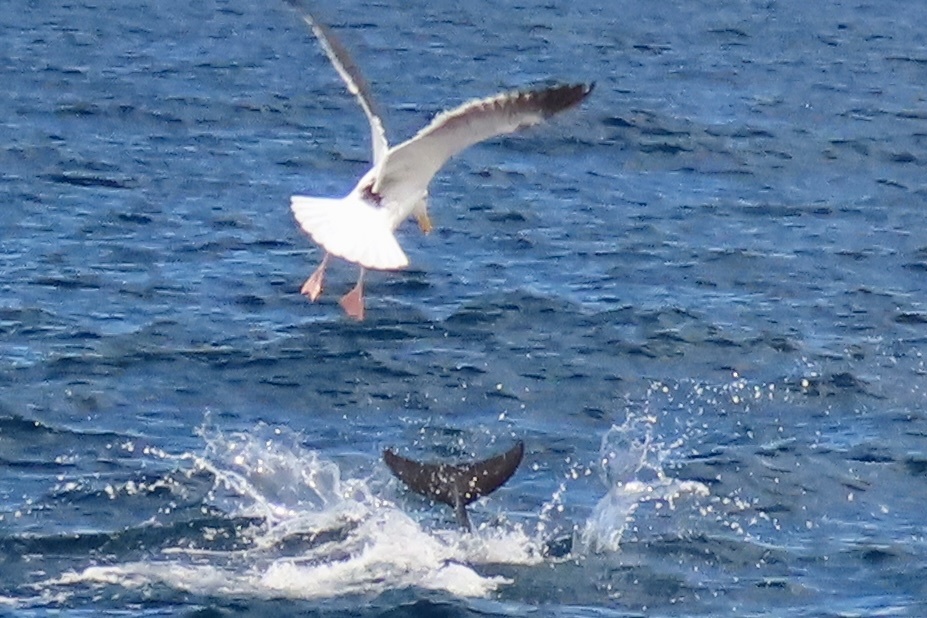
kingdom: Animalia
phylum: Chordata
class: Mammalia
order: Cetacea
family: Delphinidae
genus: Delphinus
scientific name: Delphinus delphis
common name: Common dolphin
